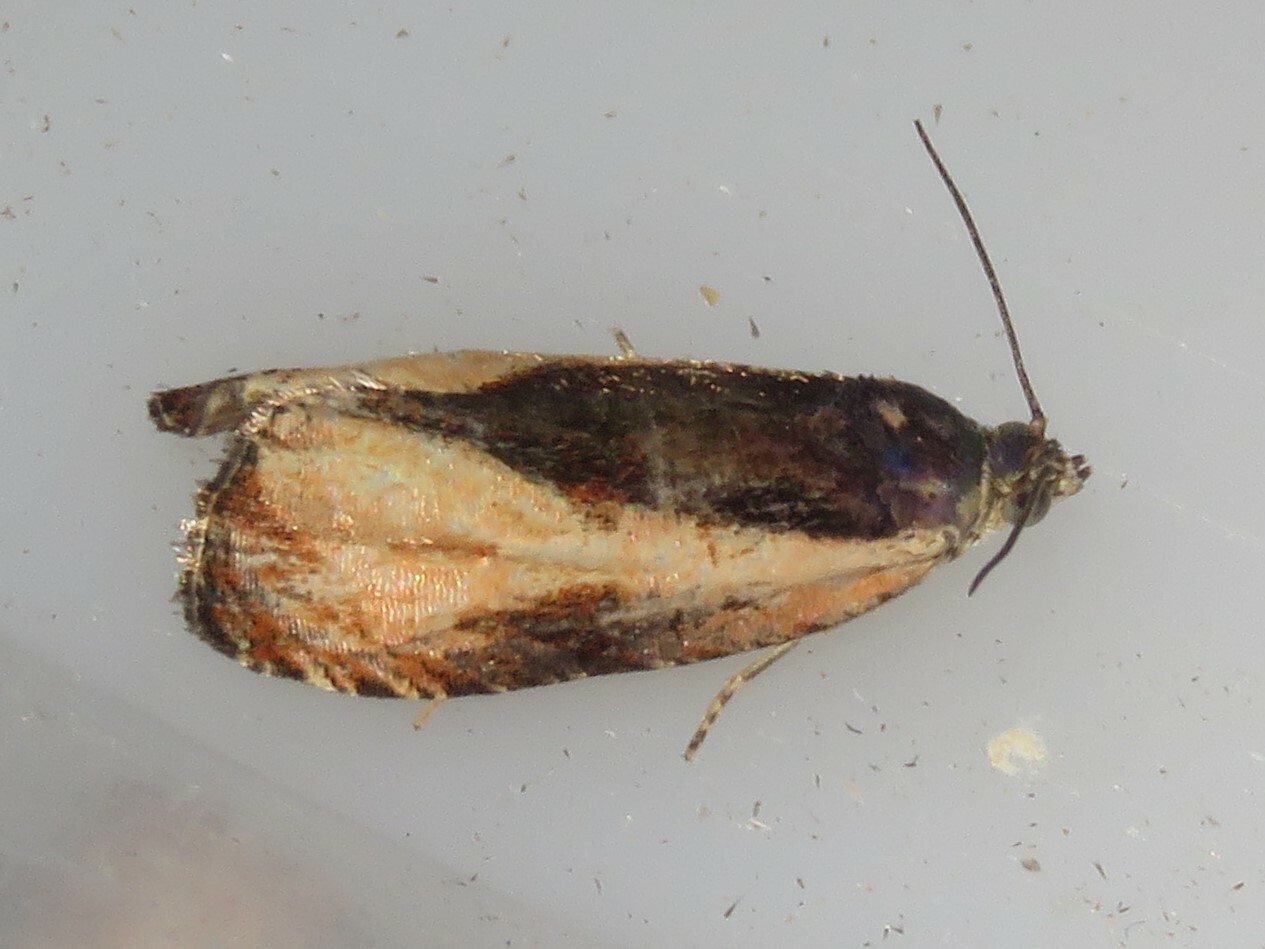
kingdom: Animalia
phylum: Arthropoda
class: Insecta
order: Lepidoptera
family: Tortricidae
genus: Olethreutes
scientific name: Olethreutes nigranum
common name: Variable nigranum moth
